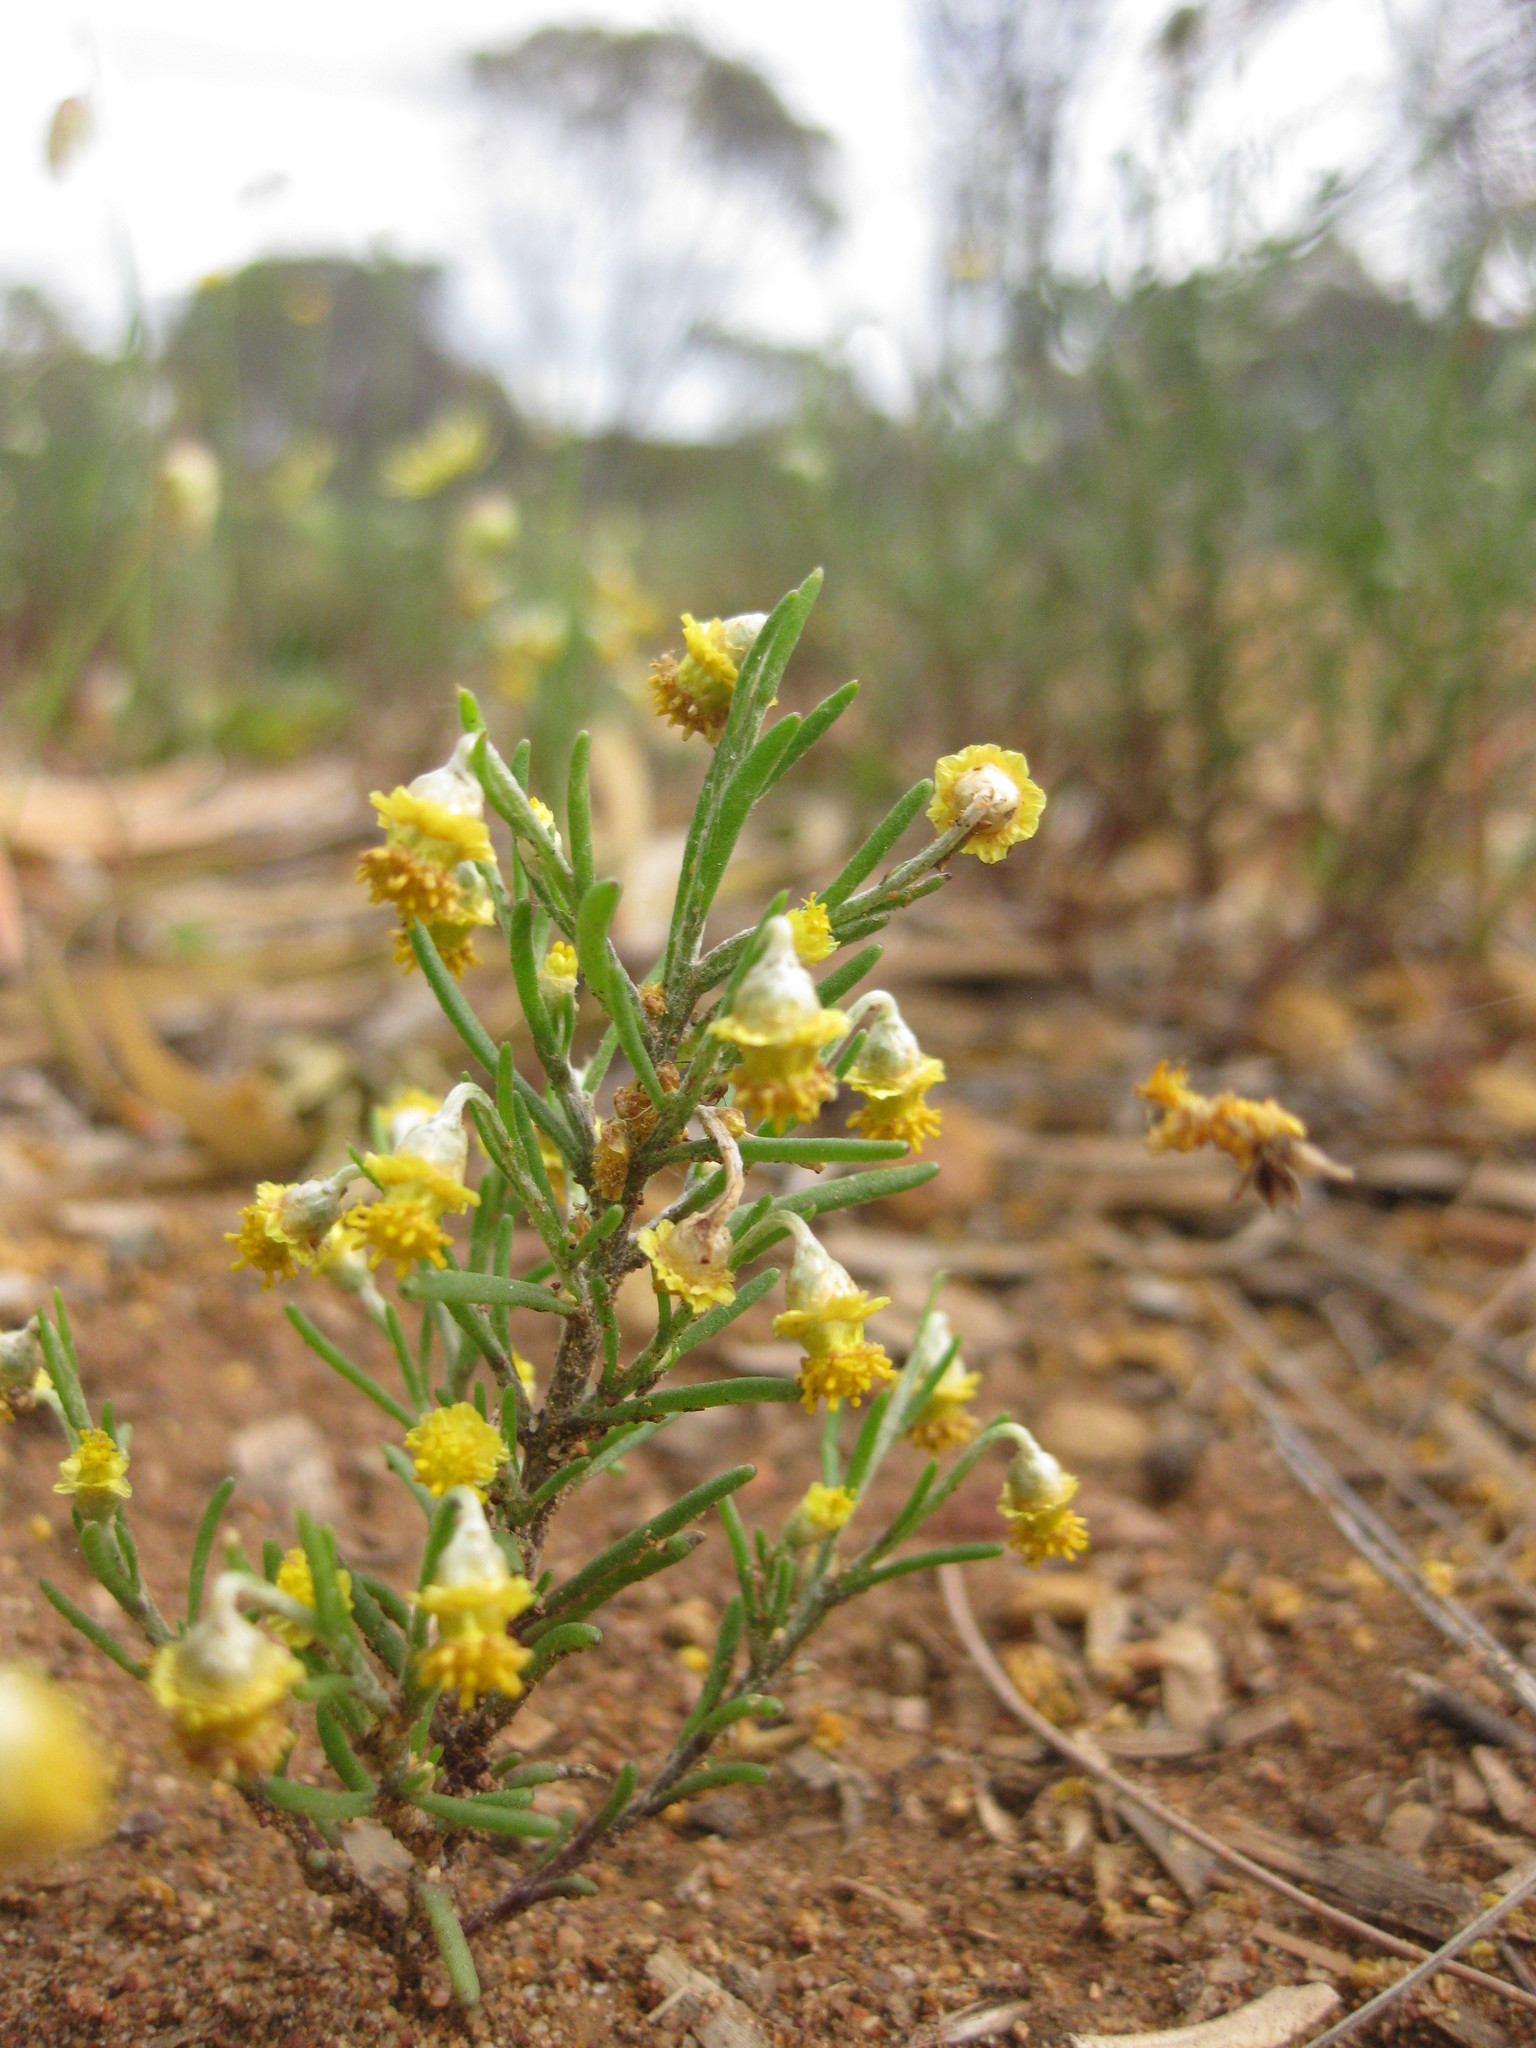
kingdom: Plantae
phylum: Tracheophyta
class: Magnoliopsida
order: Asterales
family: Asteraceae
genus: Gilberta
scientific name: Gilberta tenuifolia
